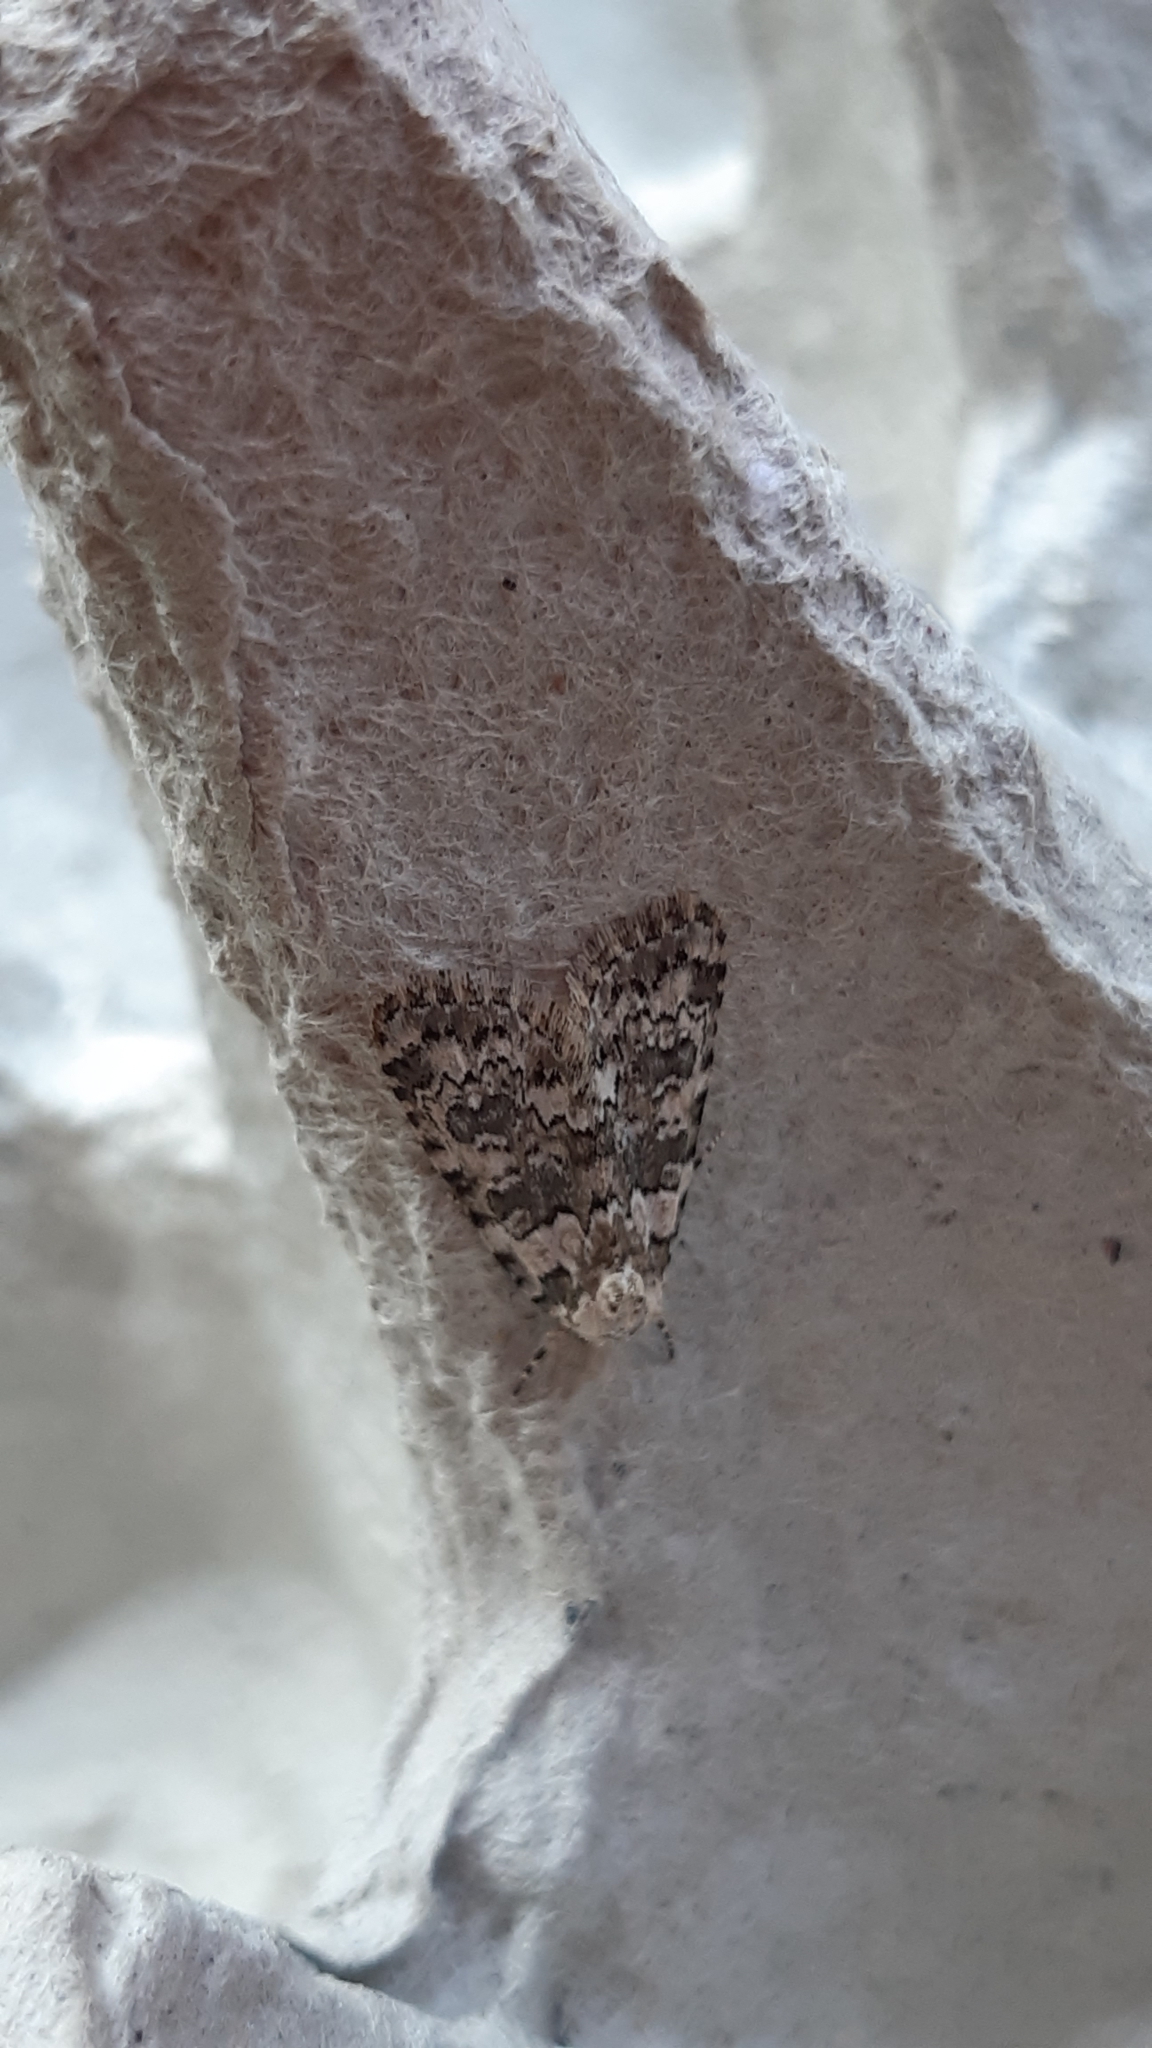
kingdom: Animalia
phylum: Arthropoda
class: Insecta
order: Lepidoptera
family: Noctuidae
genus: Bryophila
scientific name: Bryophila domestica
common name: Marbled beauty
